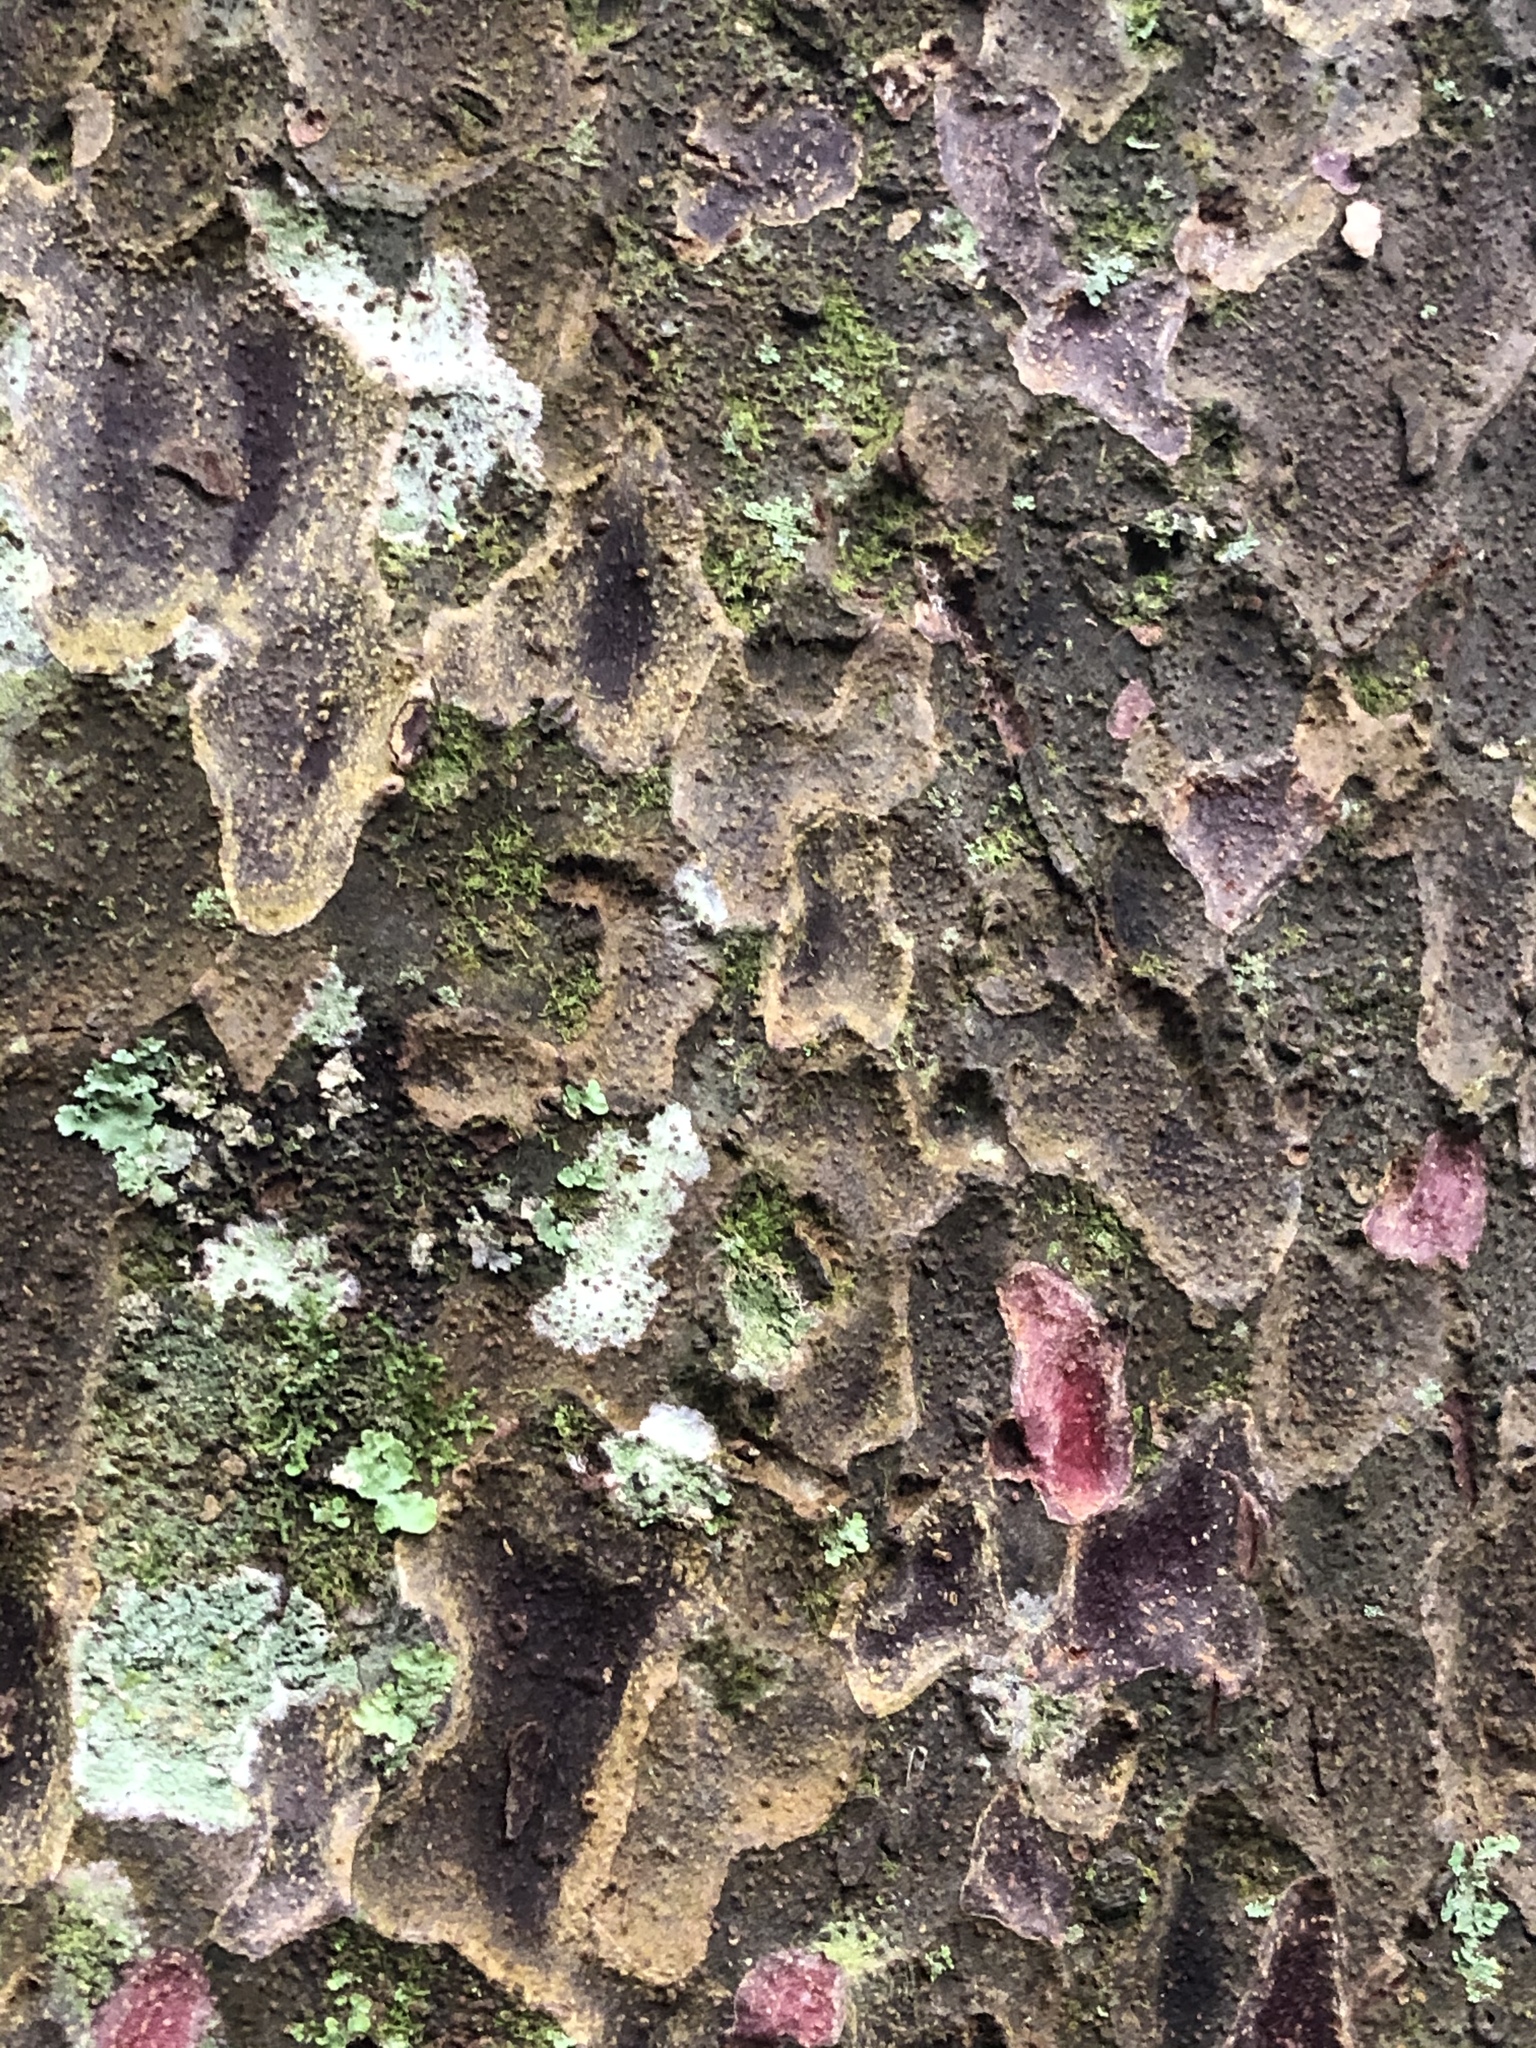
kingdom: Plantae
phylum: Tracheophyta
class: Pinopsida
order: Pinales
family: Podocarpaceae
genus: Prumnopitys
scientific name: Prumnopitys taxifolia
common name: Matai
